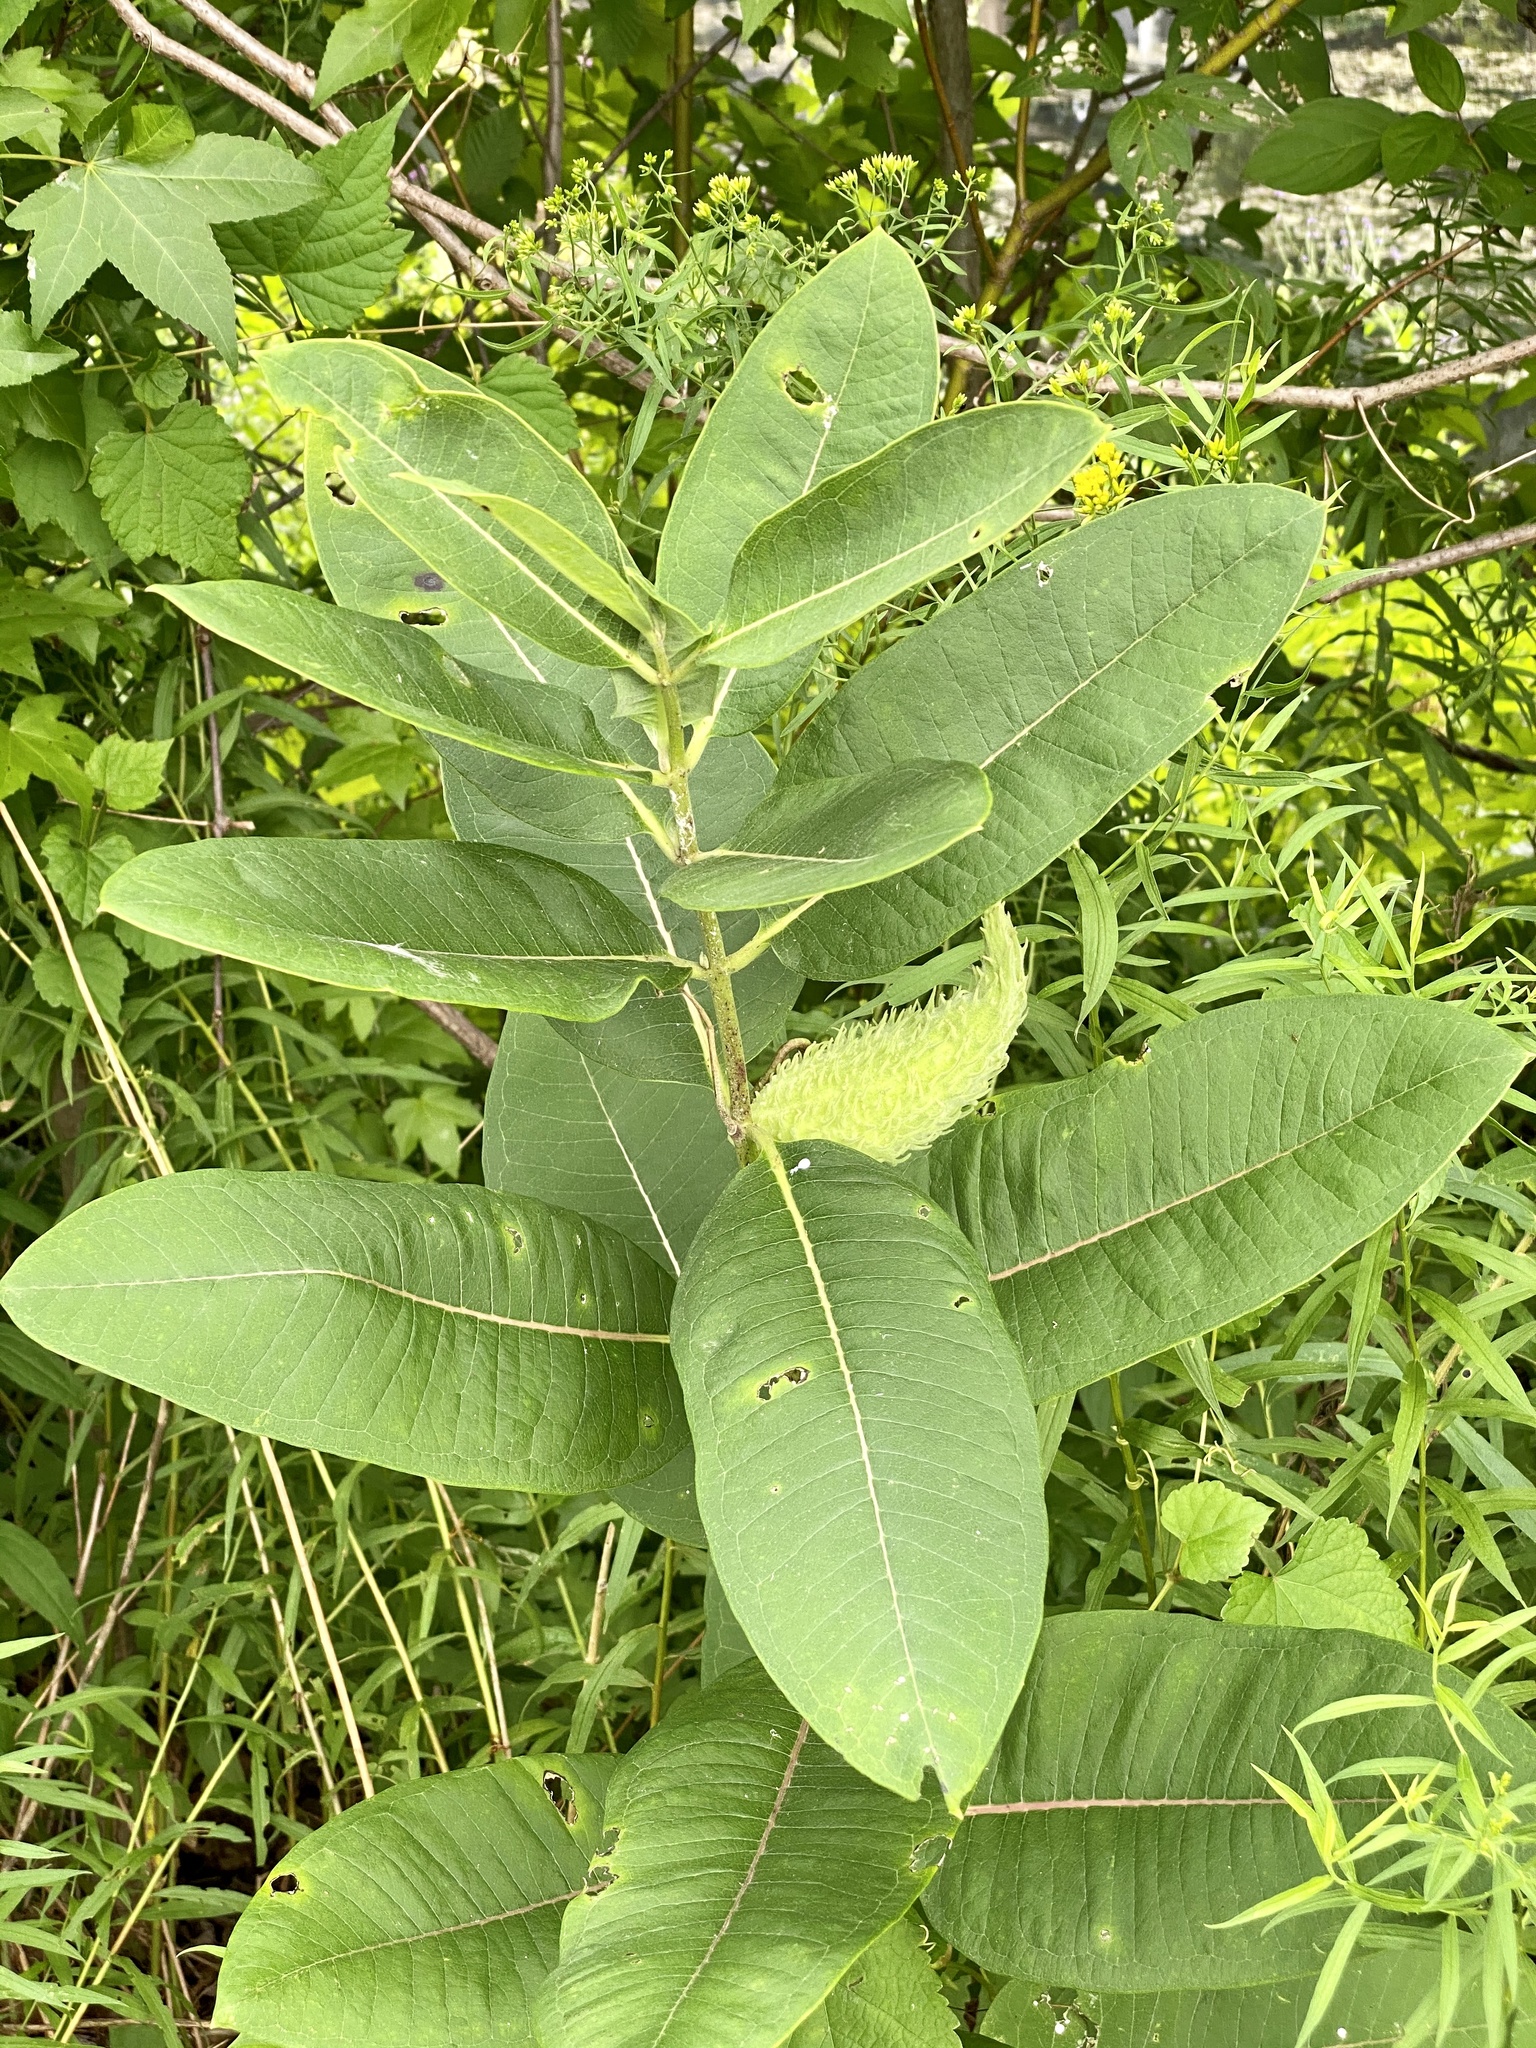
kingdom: Plantae
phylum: Tracheophyta
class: Magnoliopsida
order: Gentianales
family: Apocynaceae
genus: Asclepias
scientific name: Asclepias syriaca
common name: Common milkweed
